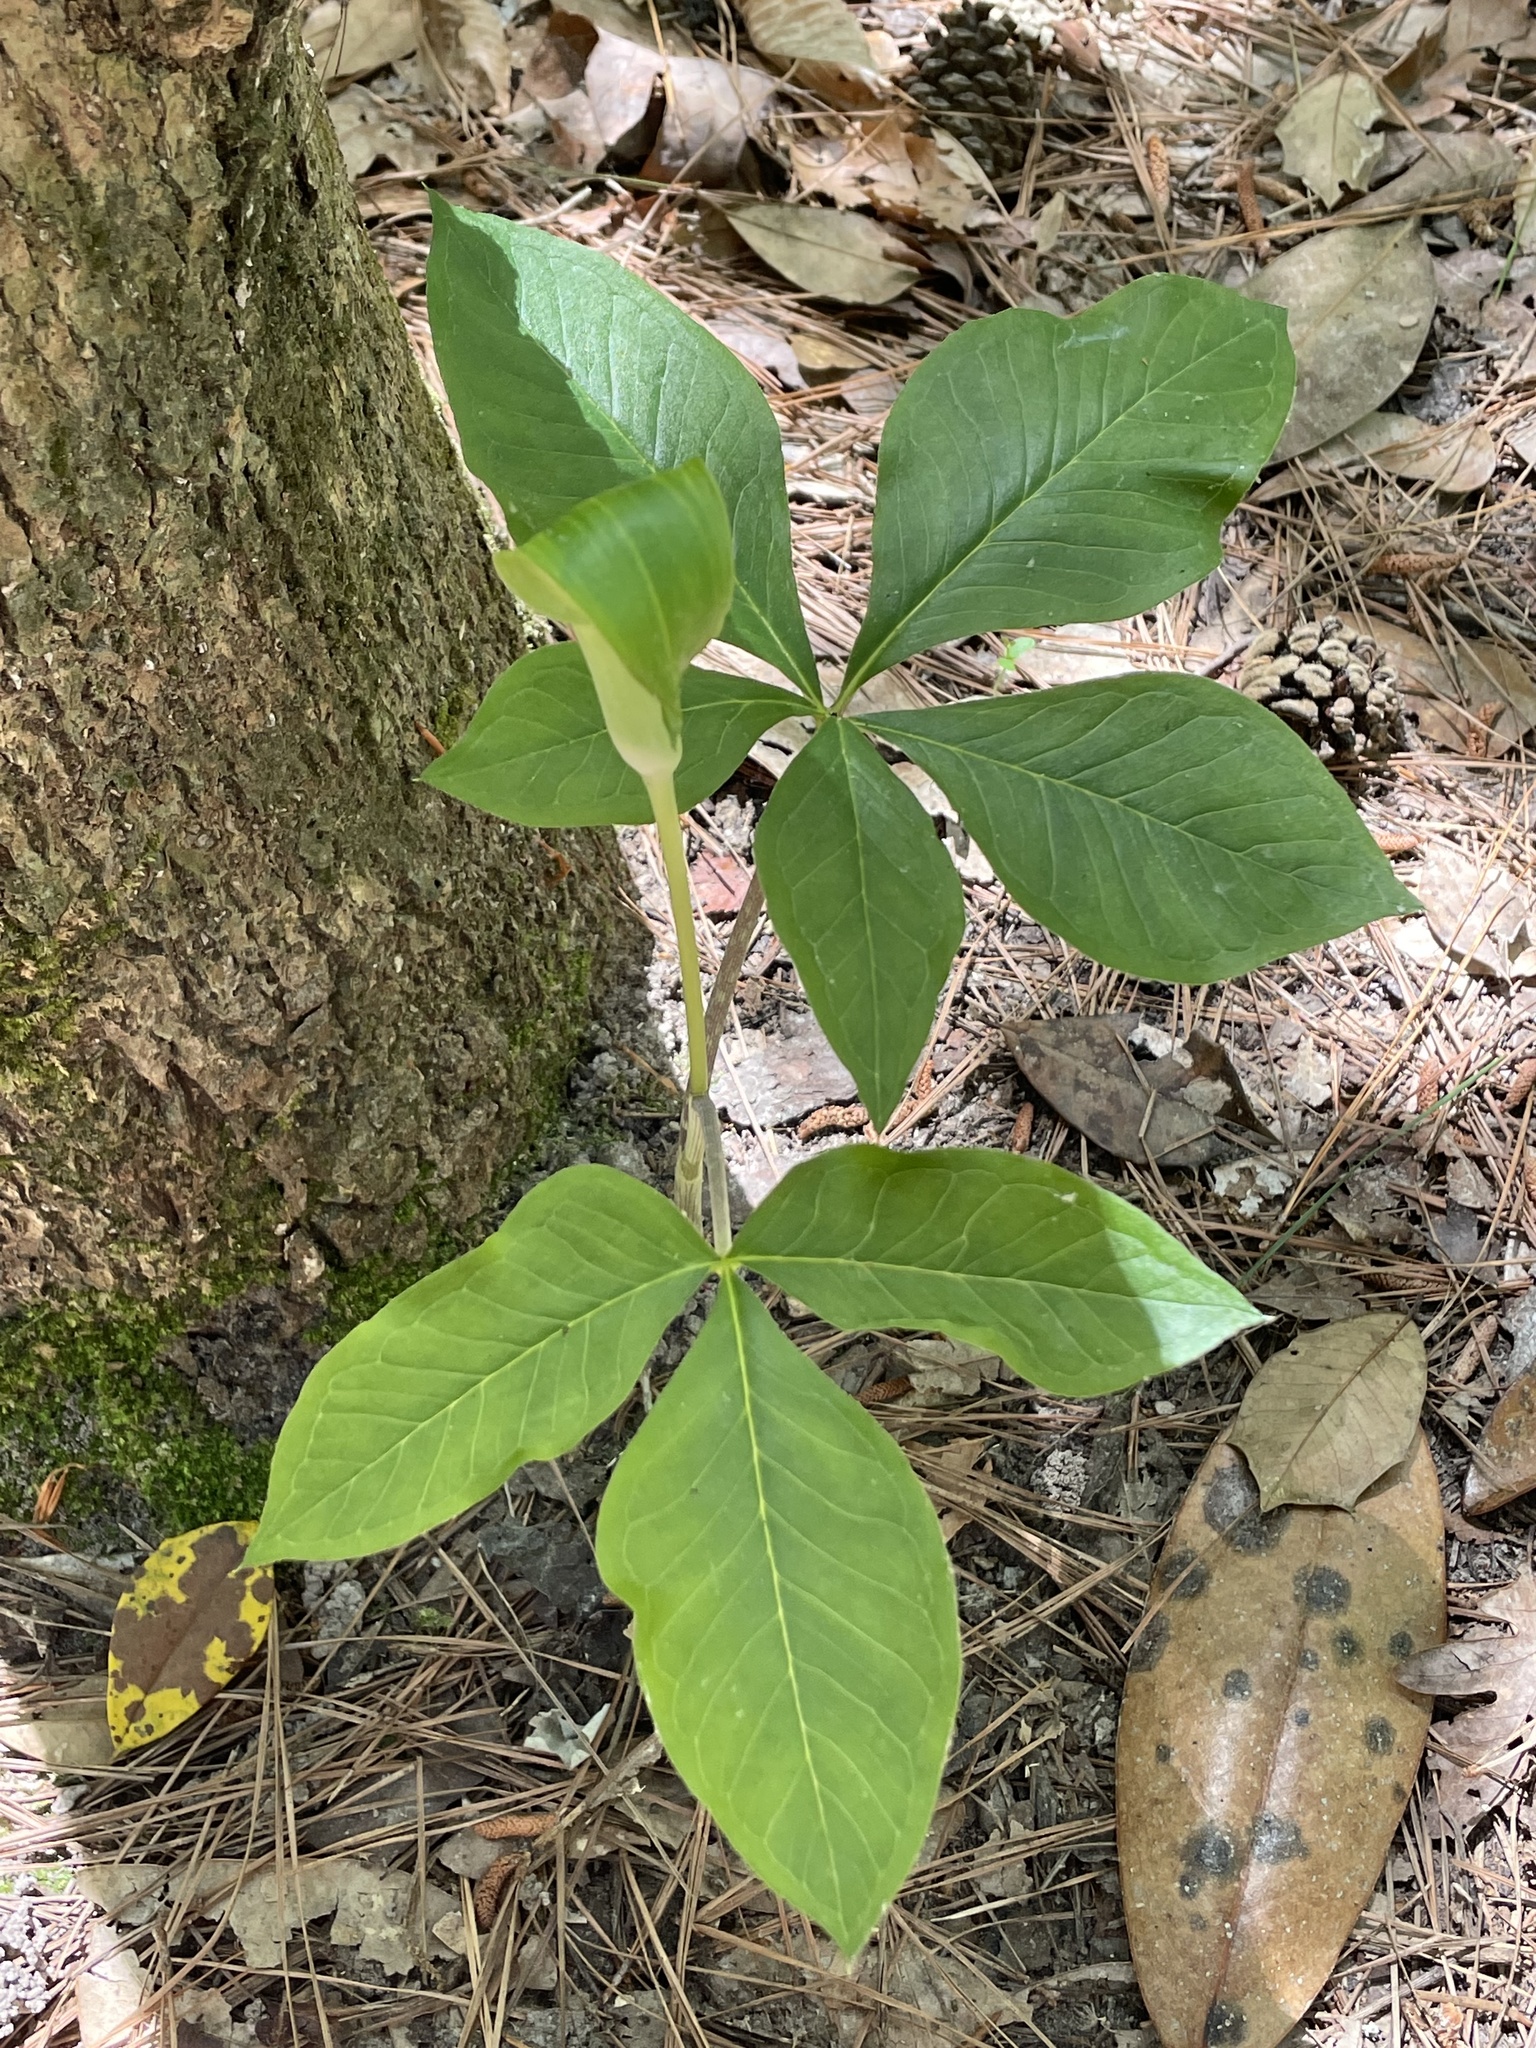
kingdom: Plantae
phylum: Tracheophyta
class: Liliopsida
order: Alismatales
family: Araceae
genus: Arisaema
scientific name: Arisaema quinatum
